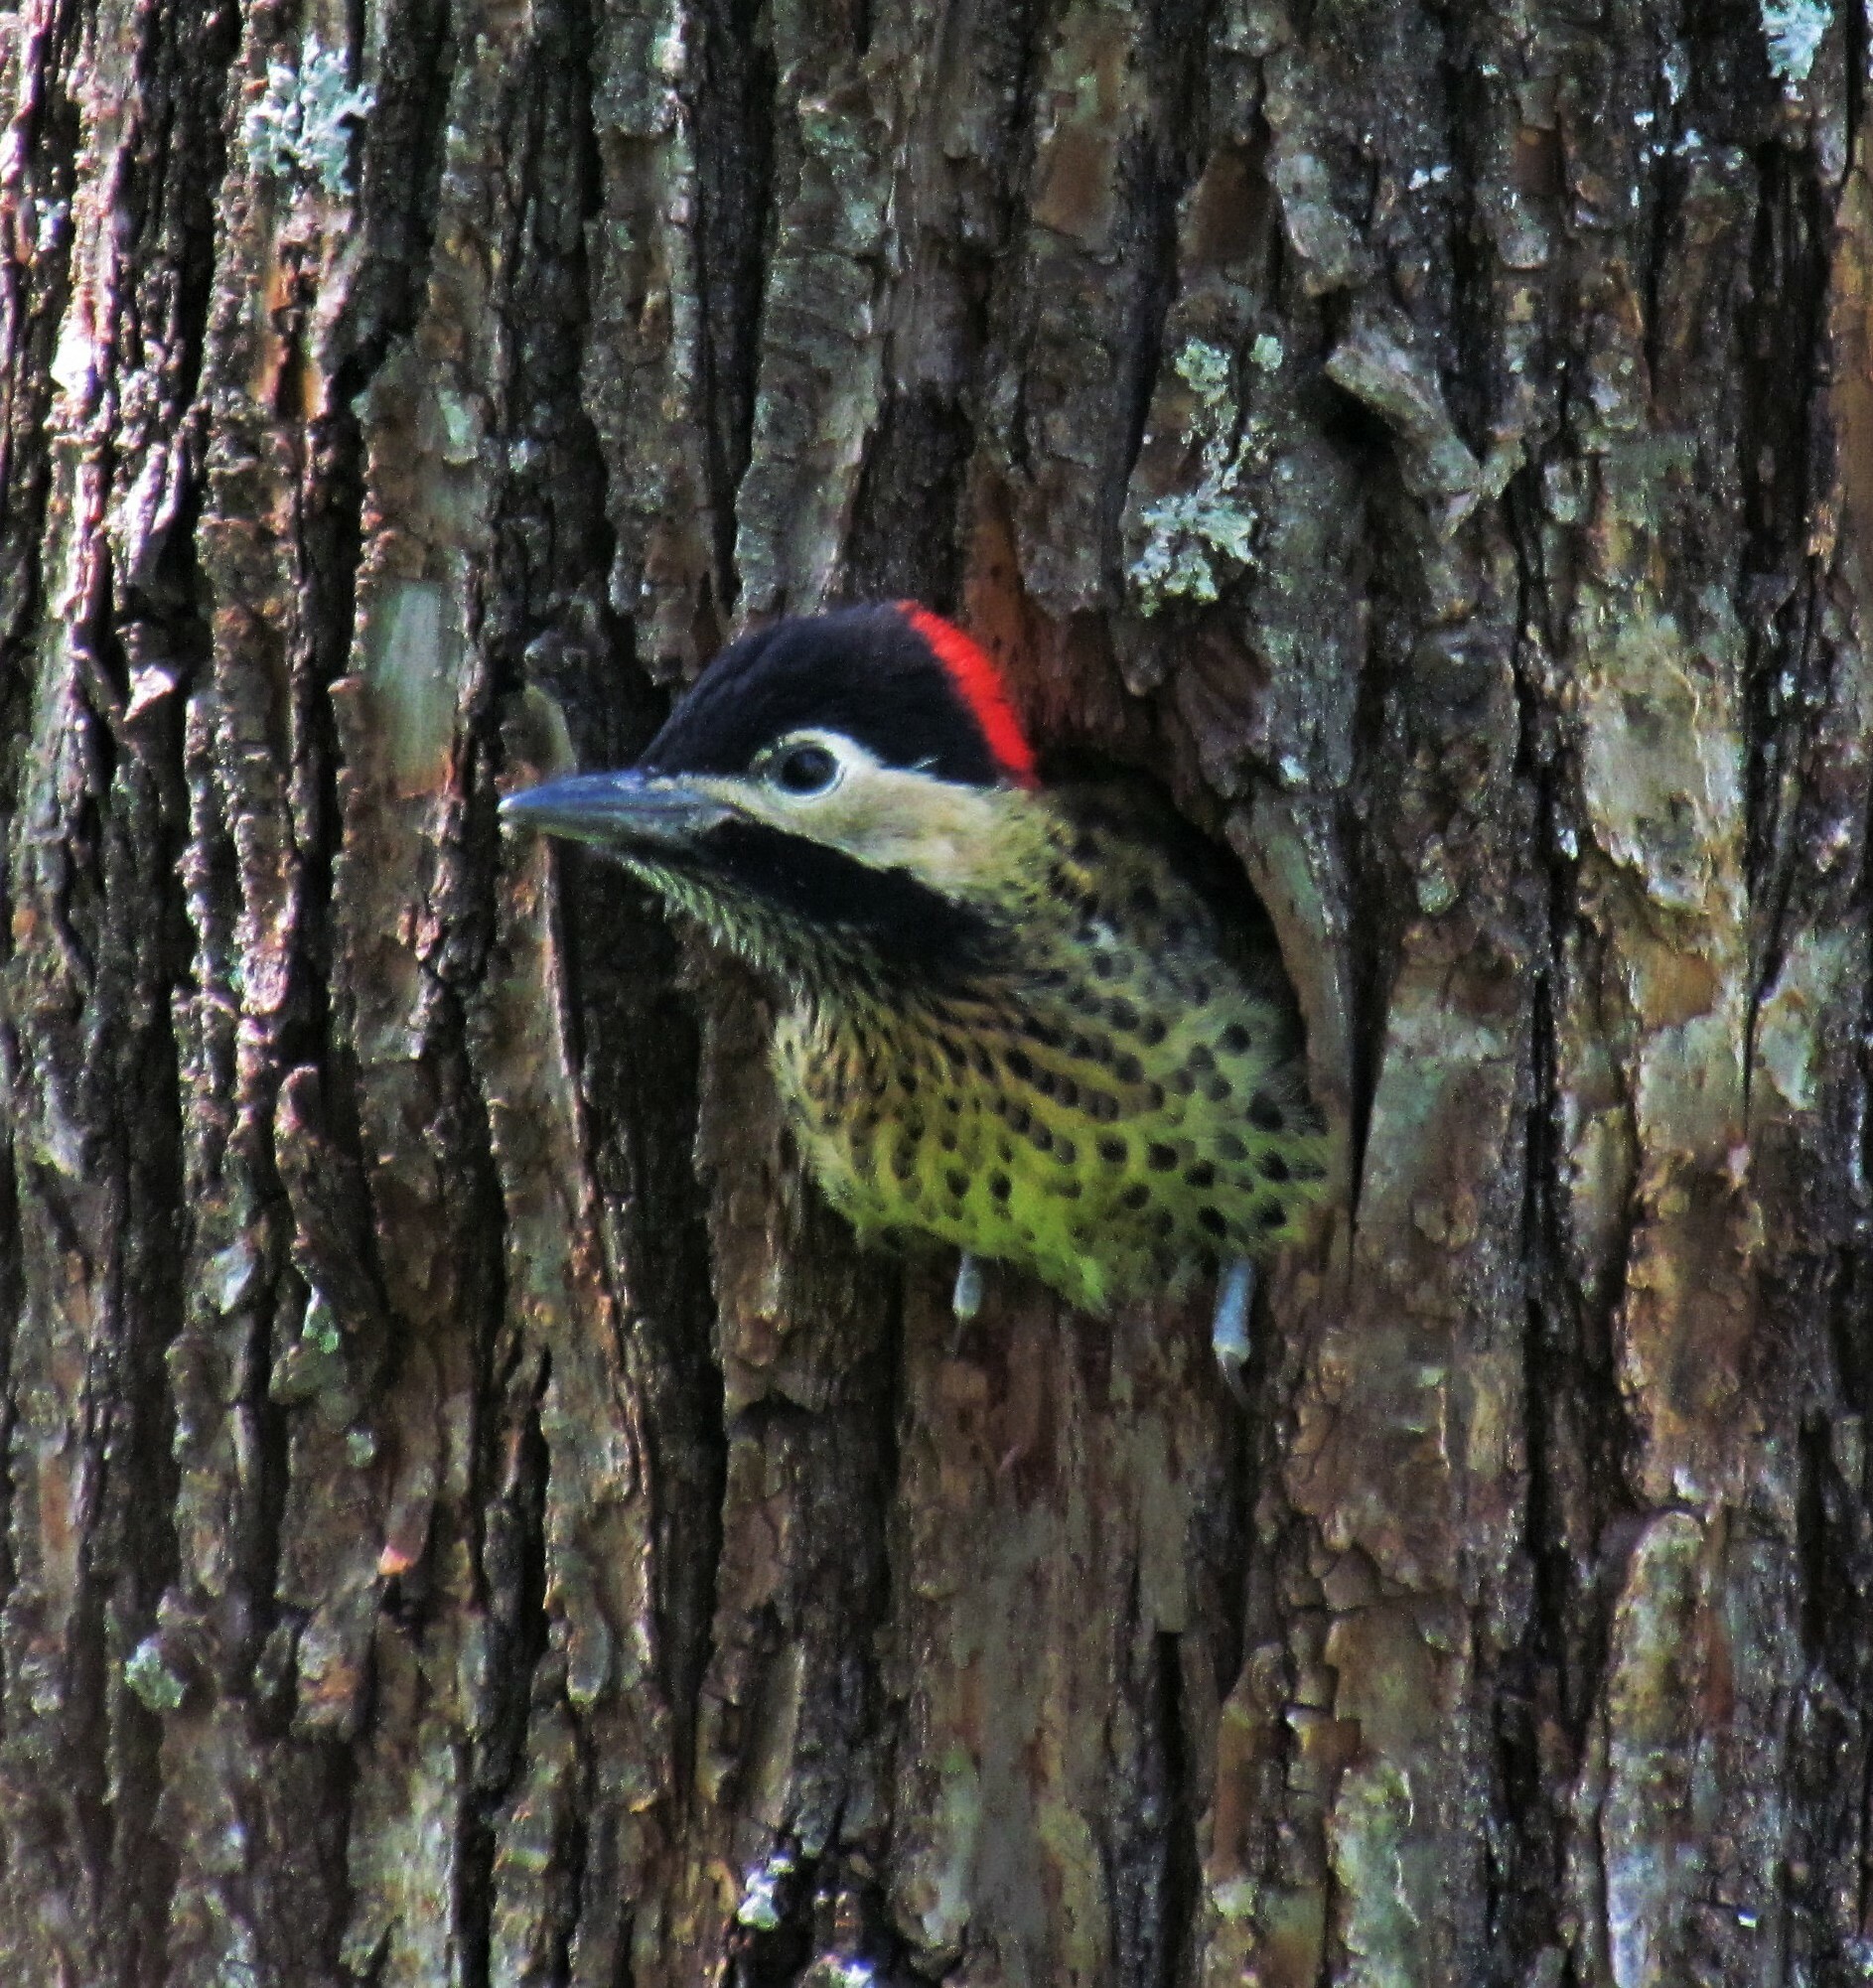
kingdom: Animalia
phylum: Chordata
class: Aves
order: Piciformes
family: Picidae
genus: Colaptes
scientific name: Colaptes melanochloros
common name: Green-barred woodpecker
